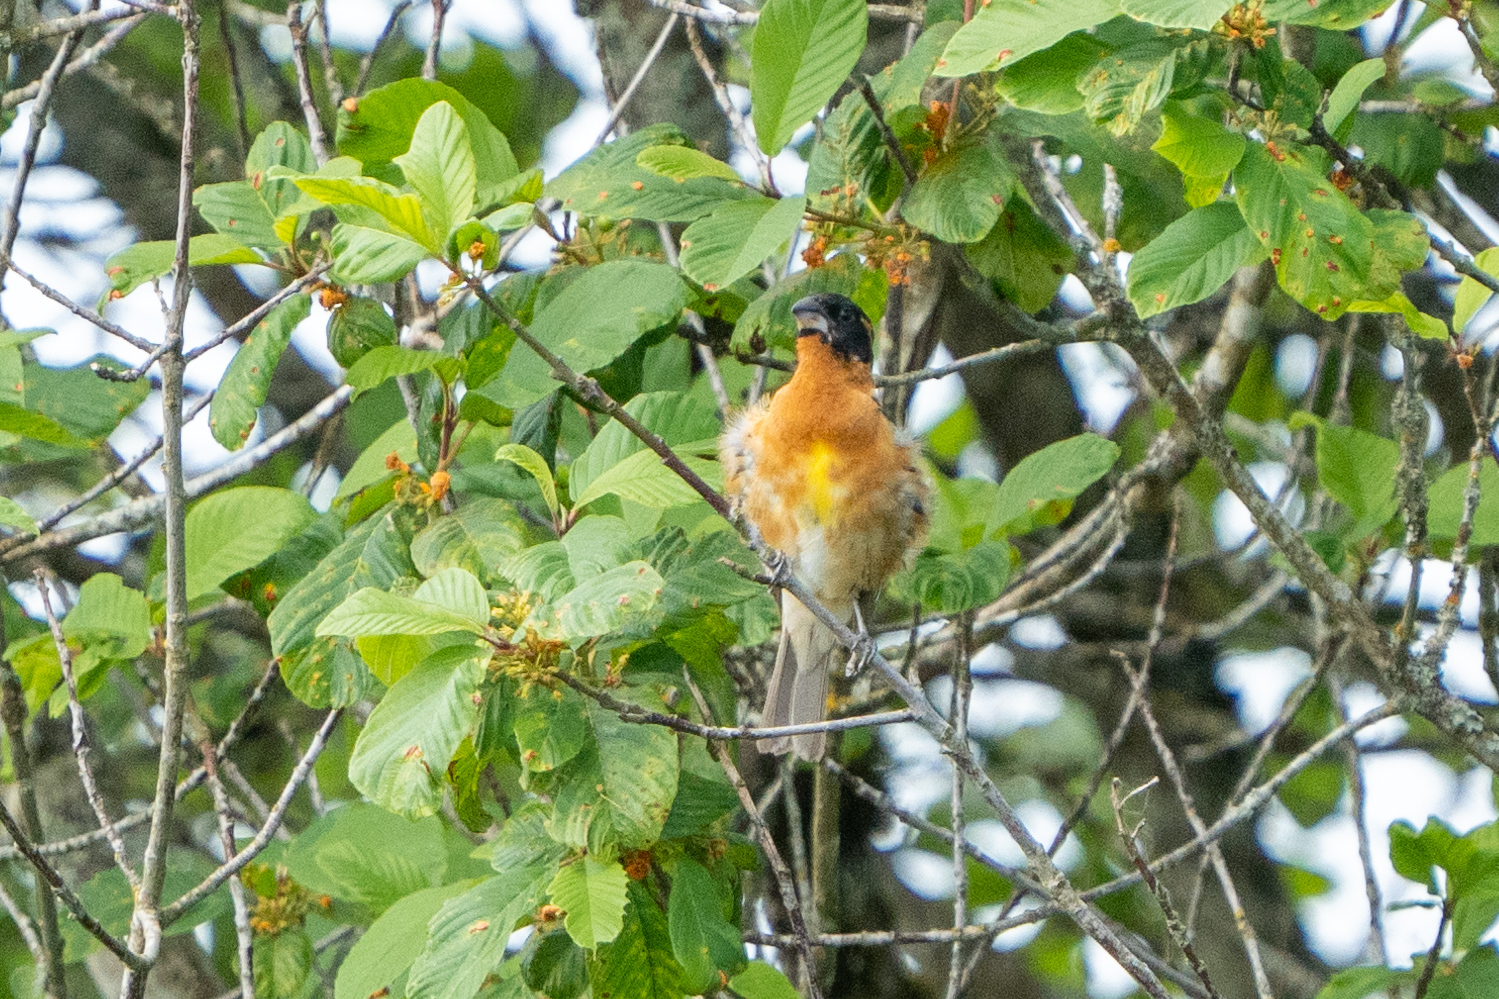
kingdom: Animalia
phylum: Chordata
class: Aves
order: Passeriformes
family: Cardinalidae
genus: Pheucticus
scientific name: Pheucticus melanocephalus
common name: Black-headed grosbeak
